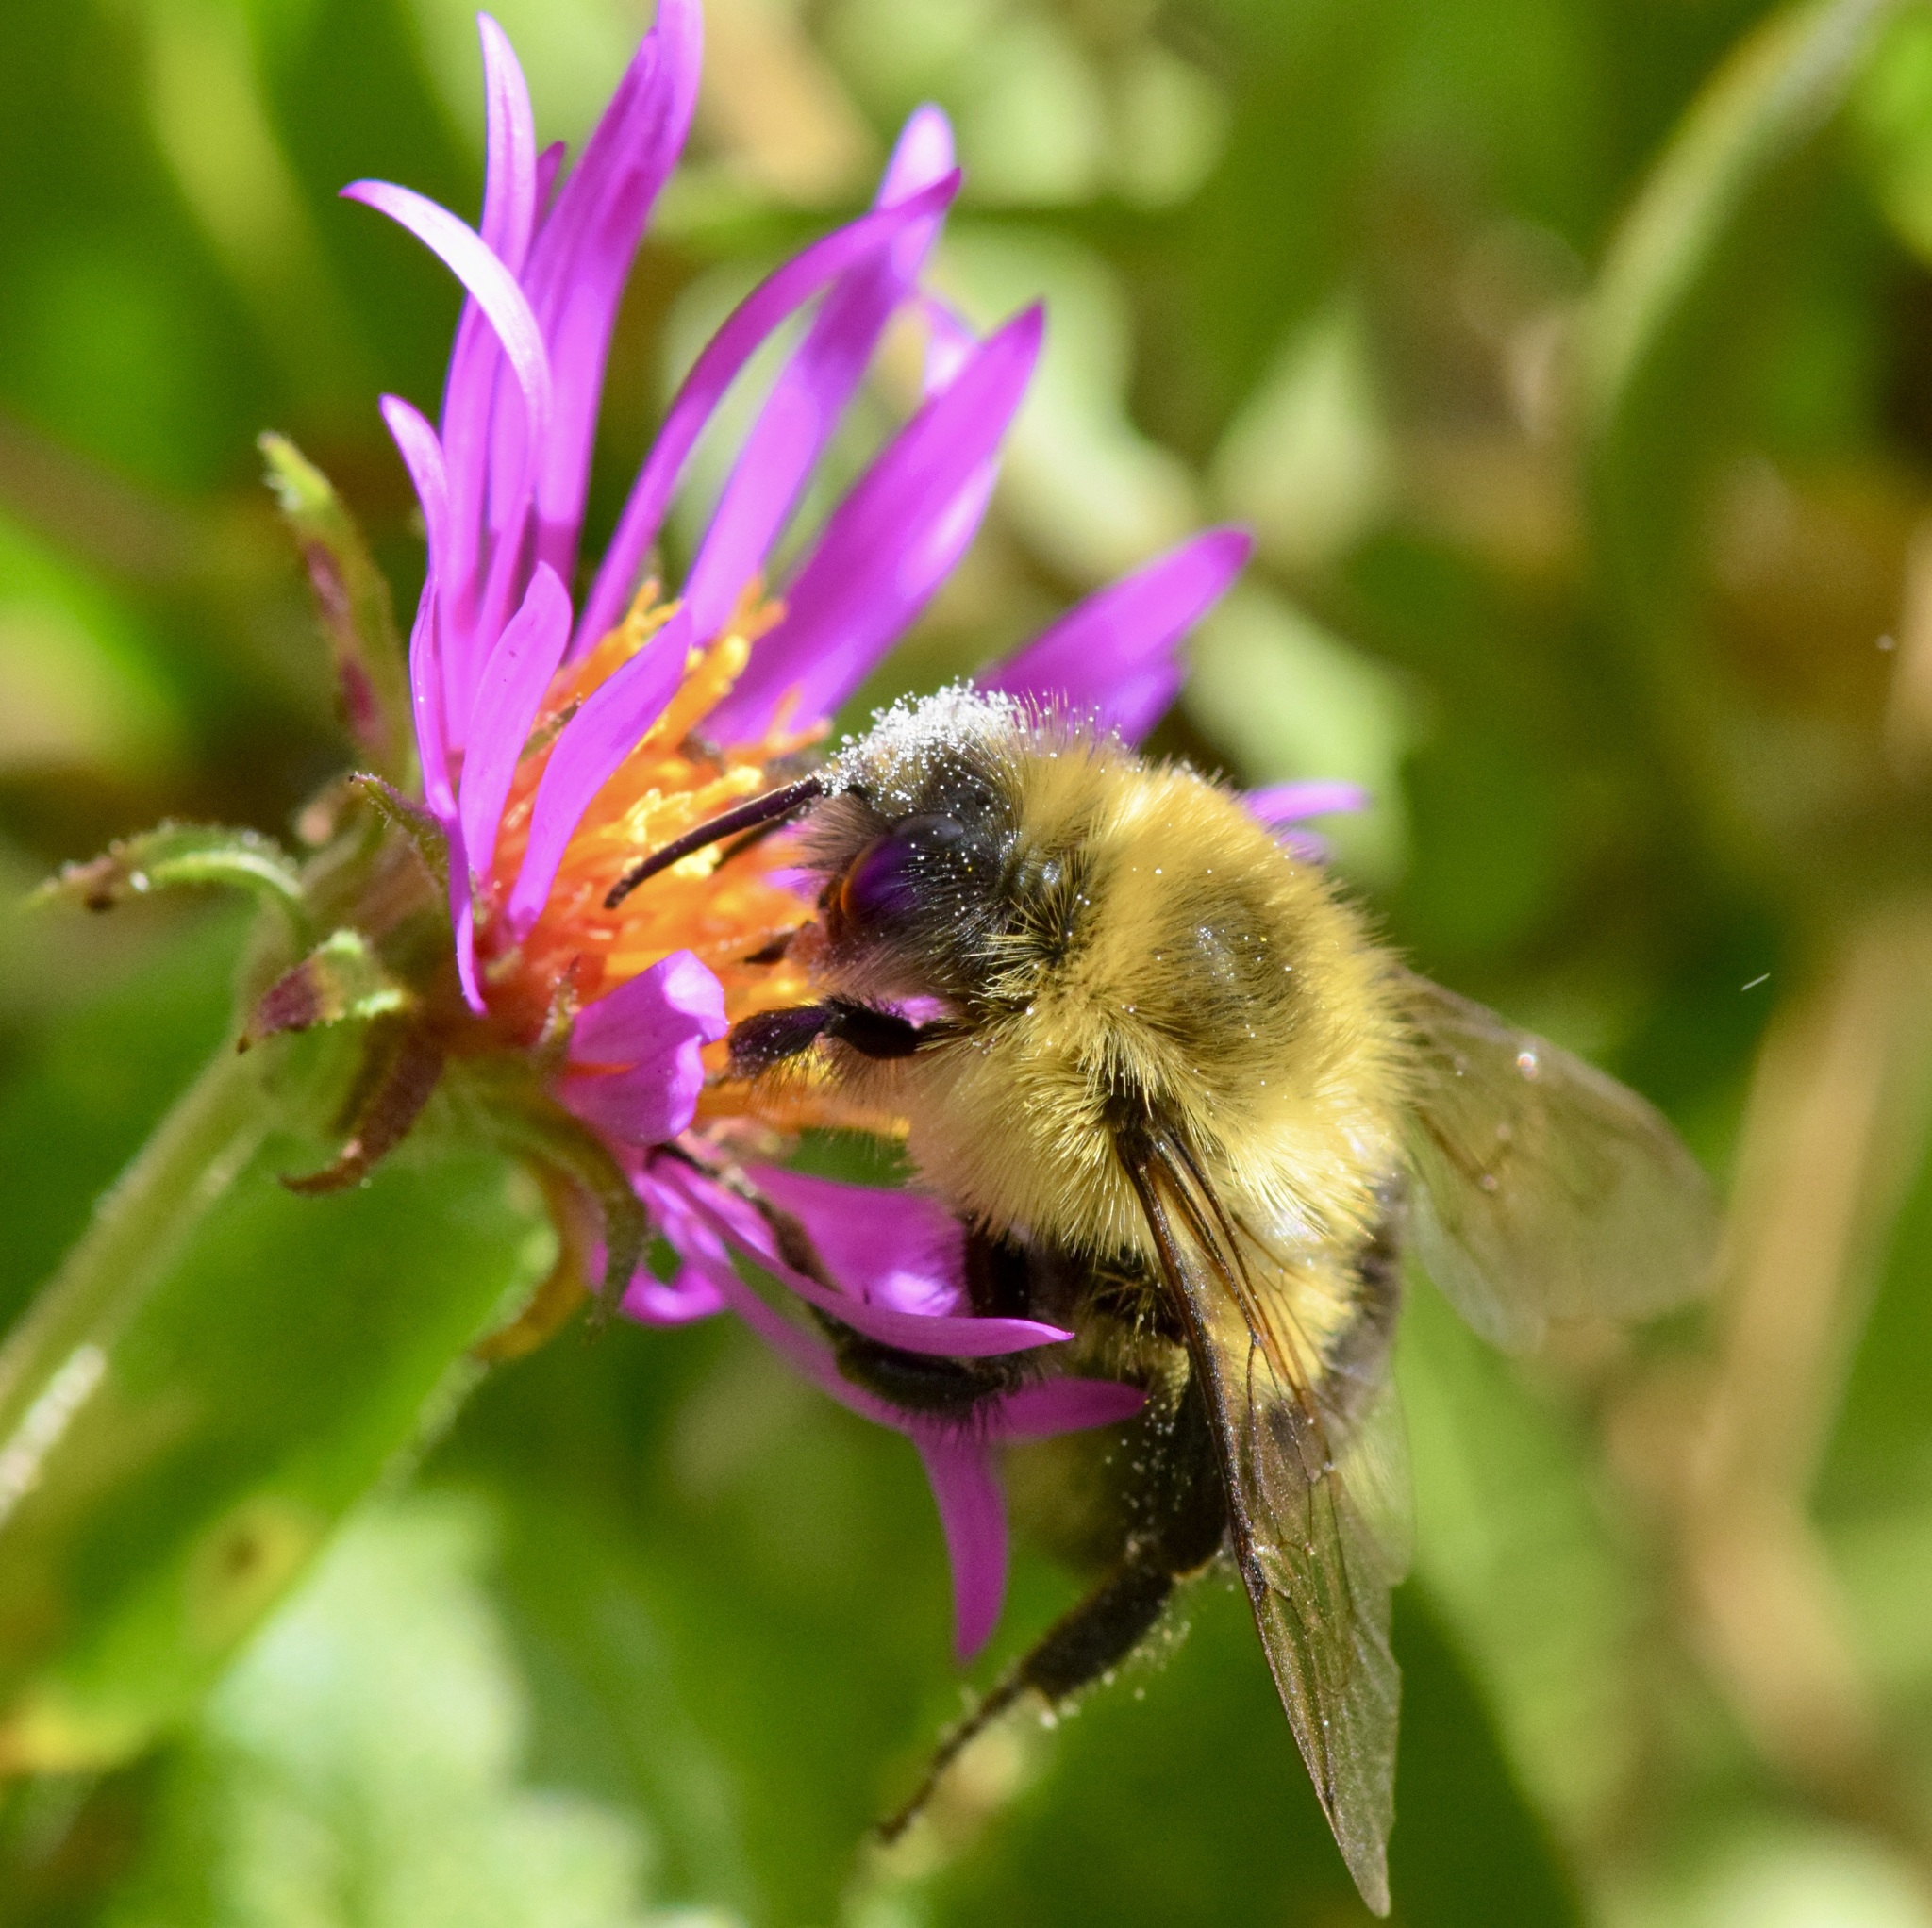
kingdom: Animalia
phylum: Arthropoda
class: Insecta
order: Hymenoptera
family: Apidae
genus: Bombus
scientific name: Bombus impatiens
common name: Common eastern bumble bee
